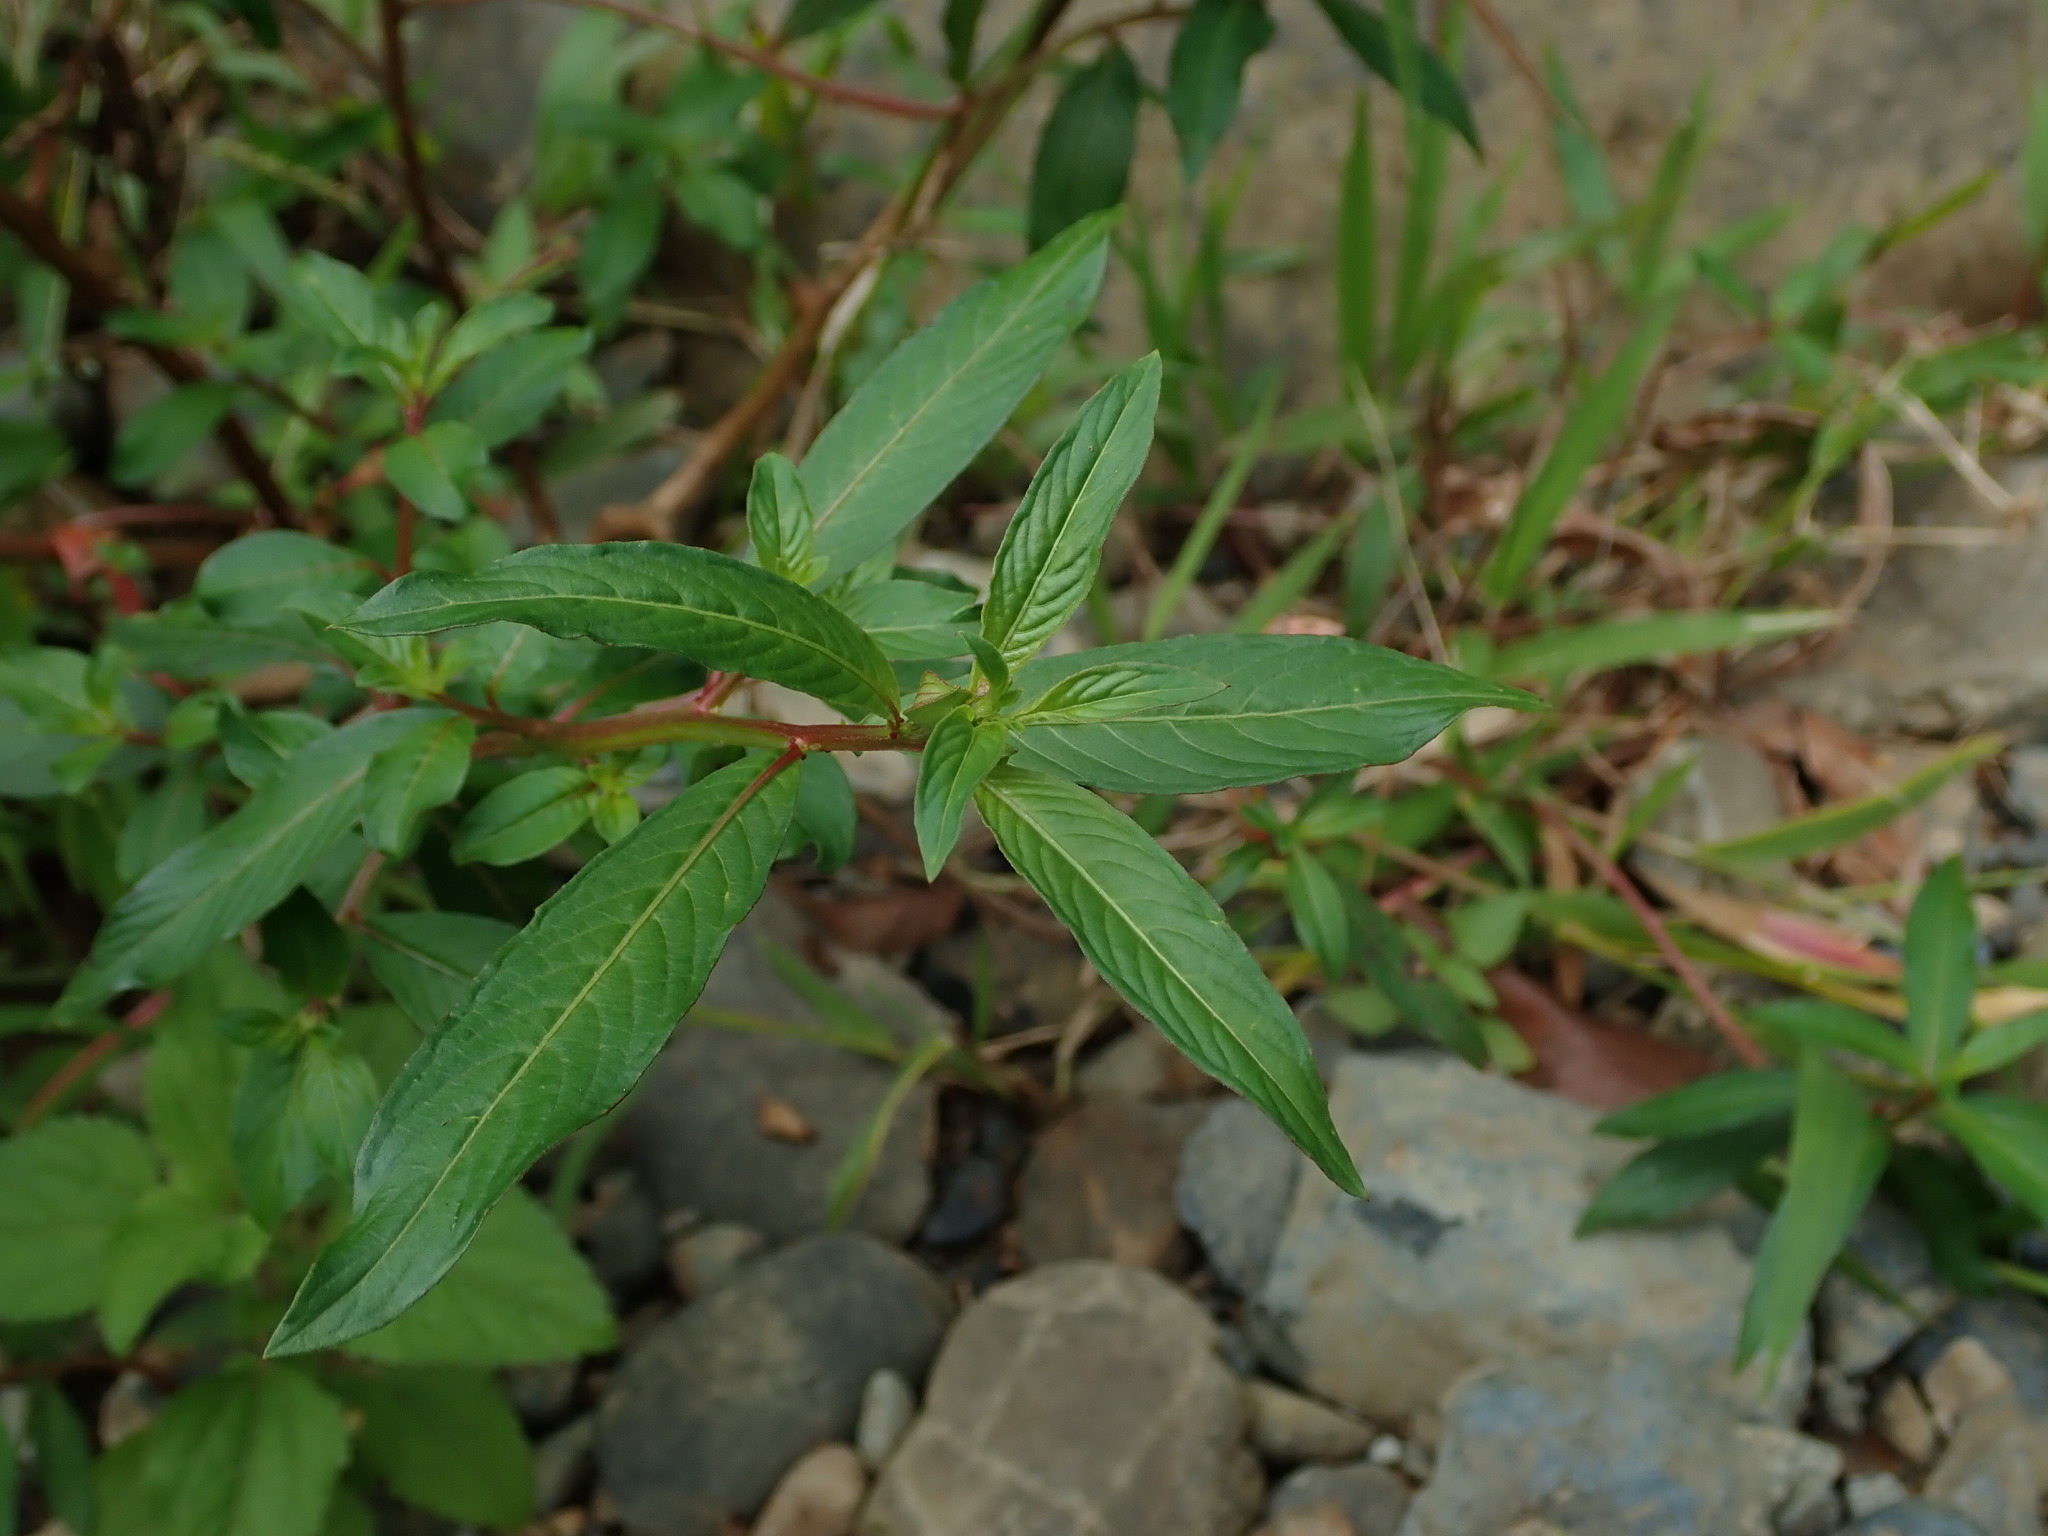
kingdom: Plantae
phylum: Tracheophyta
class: Magnoliopsida
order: Myrtales
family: Onagraceae
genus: Ludwigia
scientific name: Ludwigia octovalvis
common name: Water-primrose
